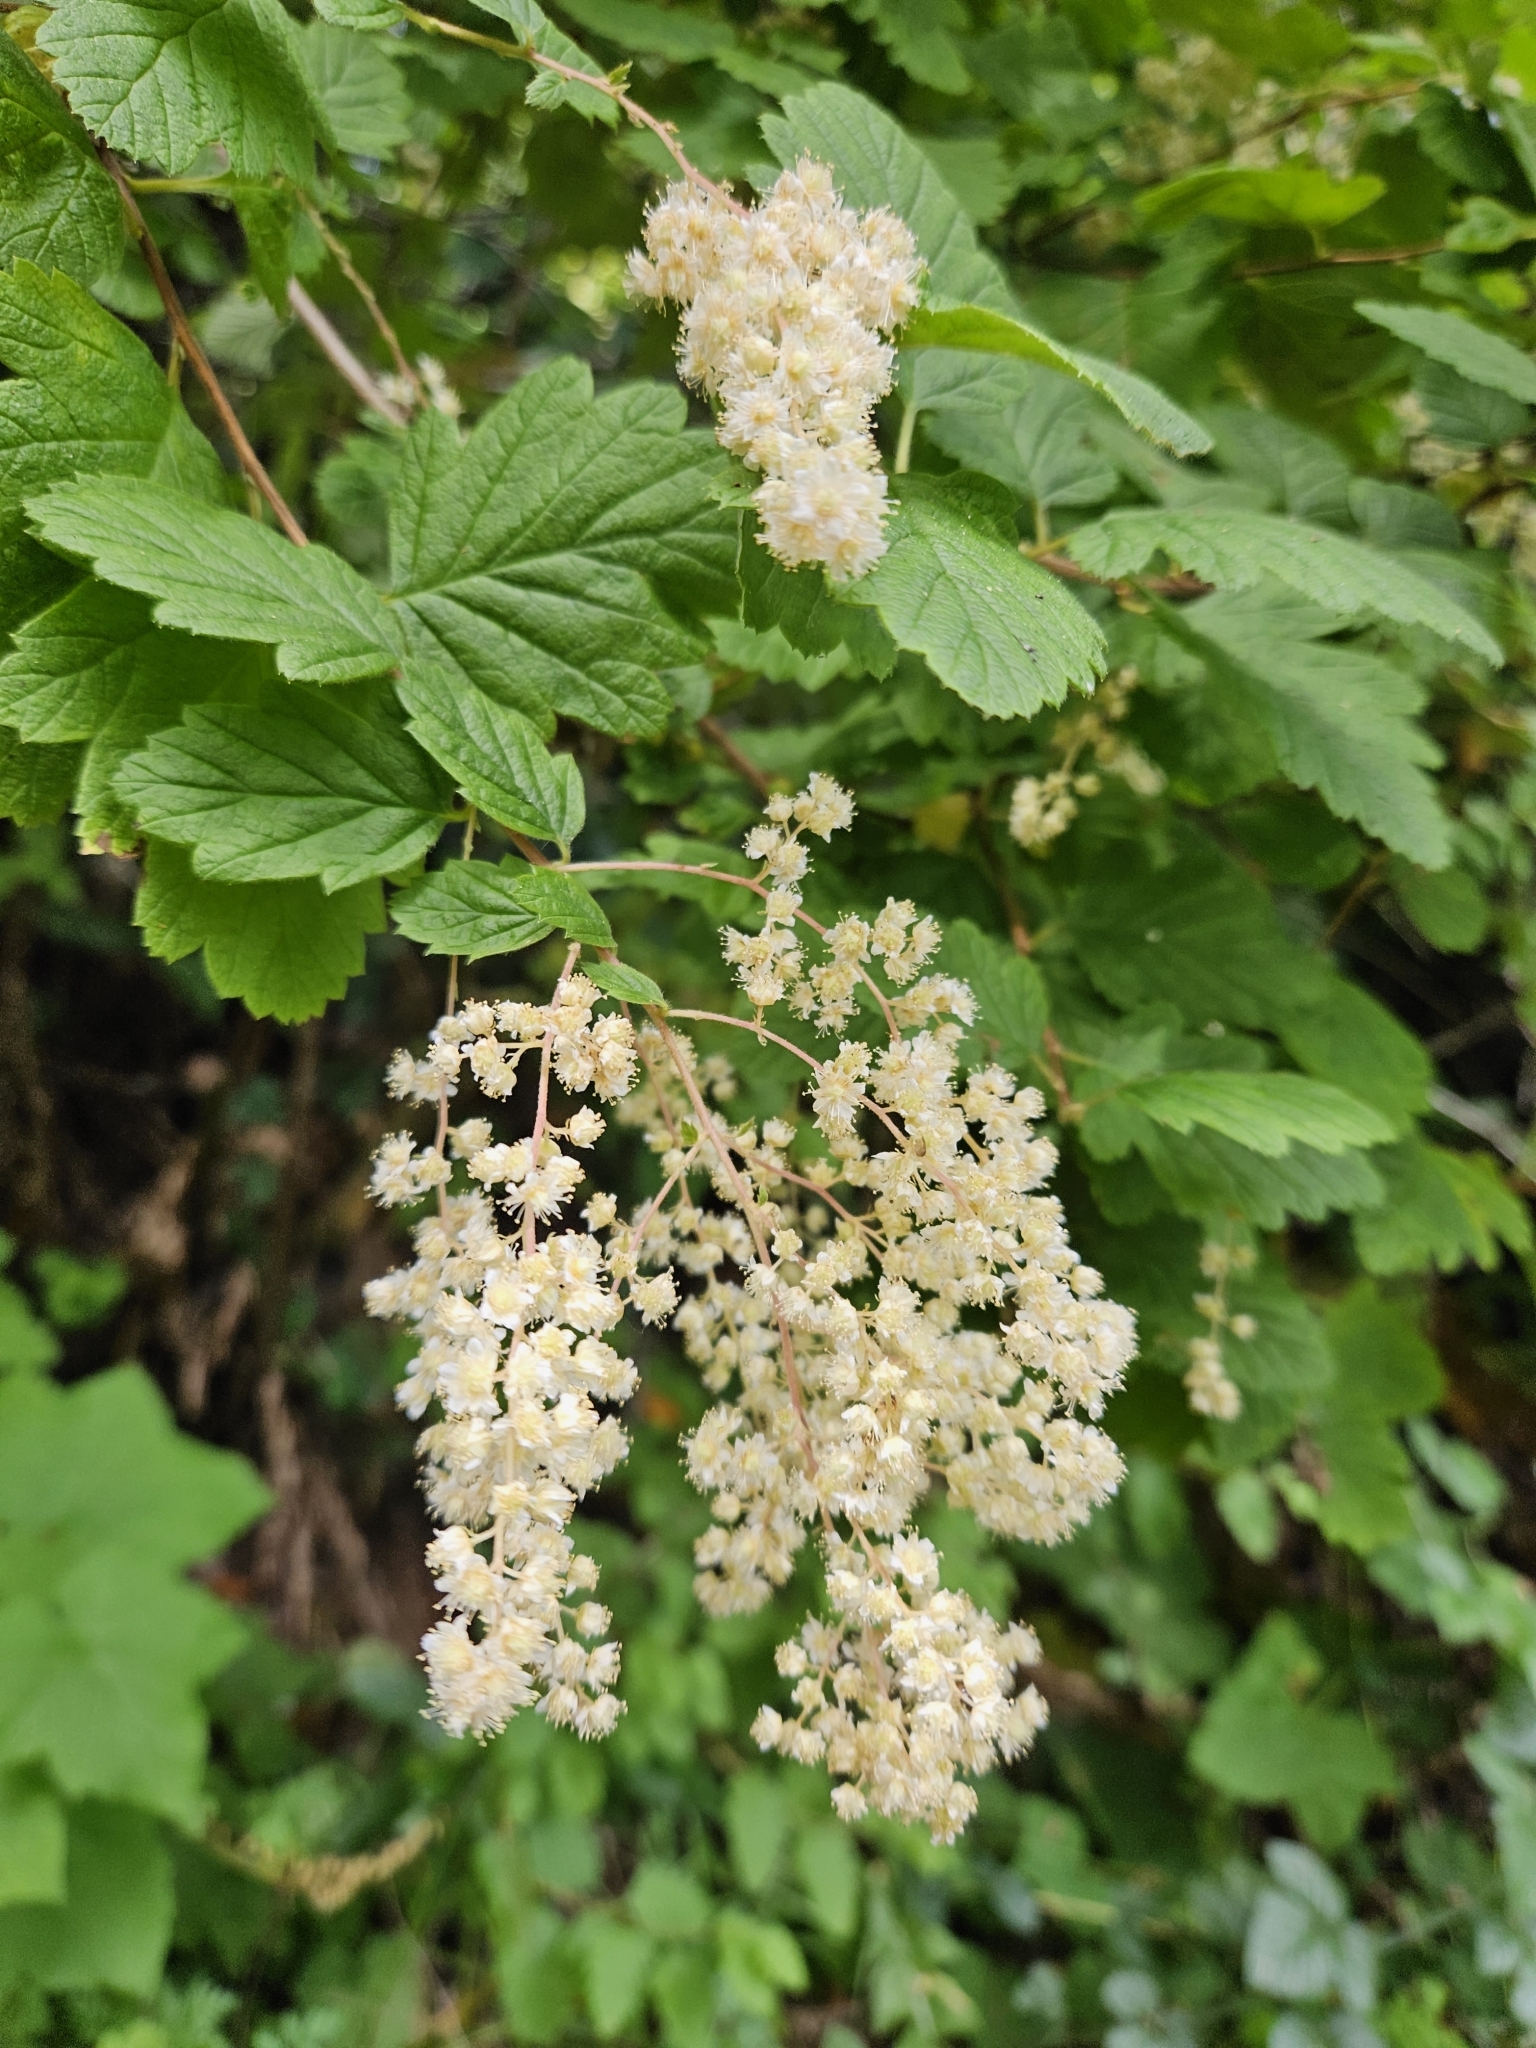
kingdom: Plantae
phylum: Tracheophyta
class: Magnoliopsida
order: Rosales
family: Rosaceae
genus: Holodiscus
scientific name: Holodiscus discolor
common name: Oceanspray
